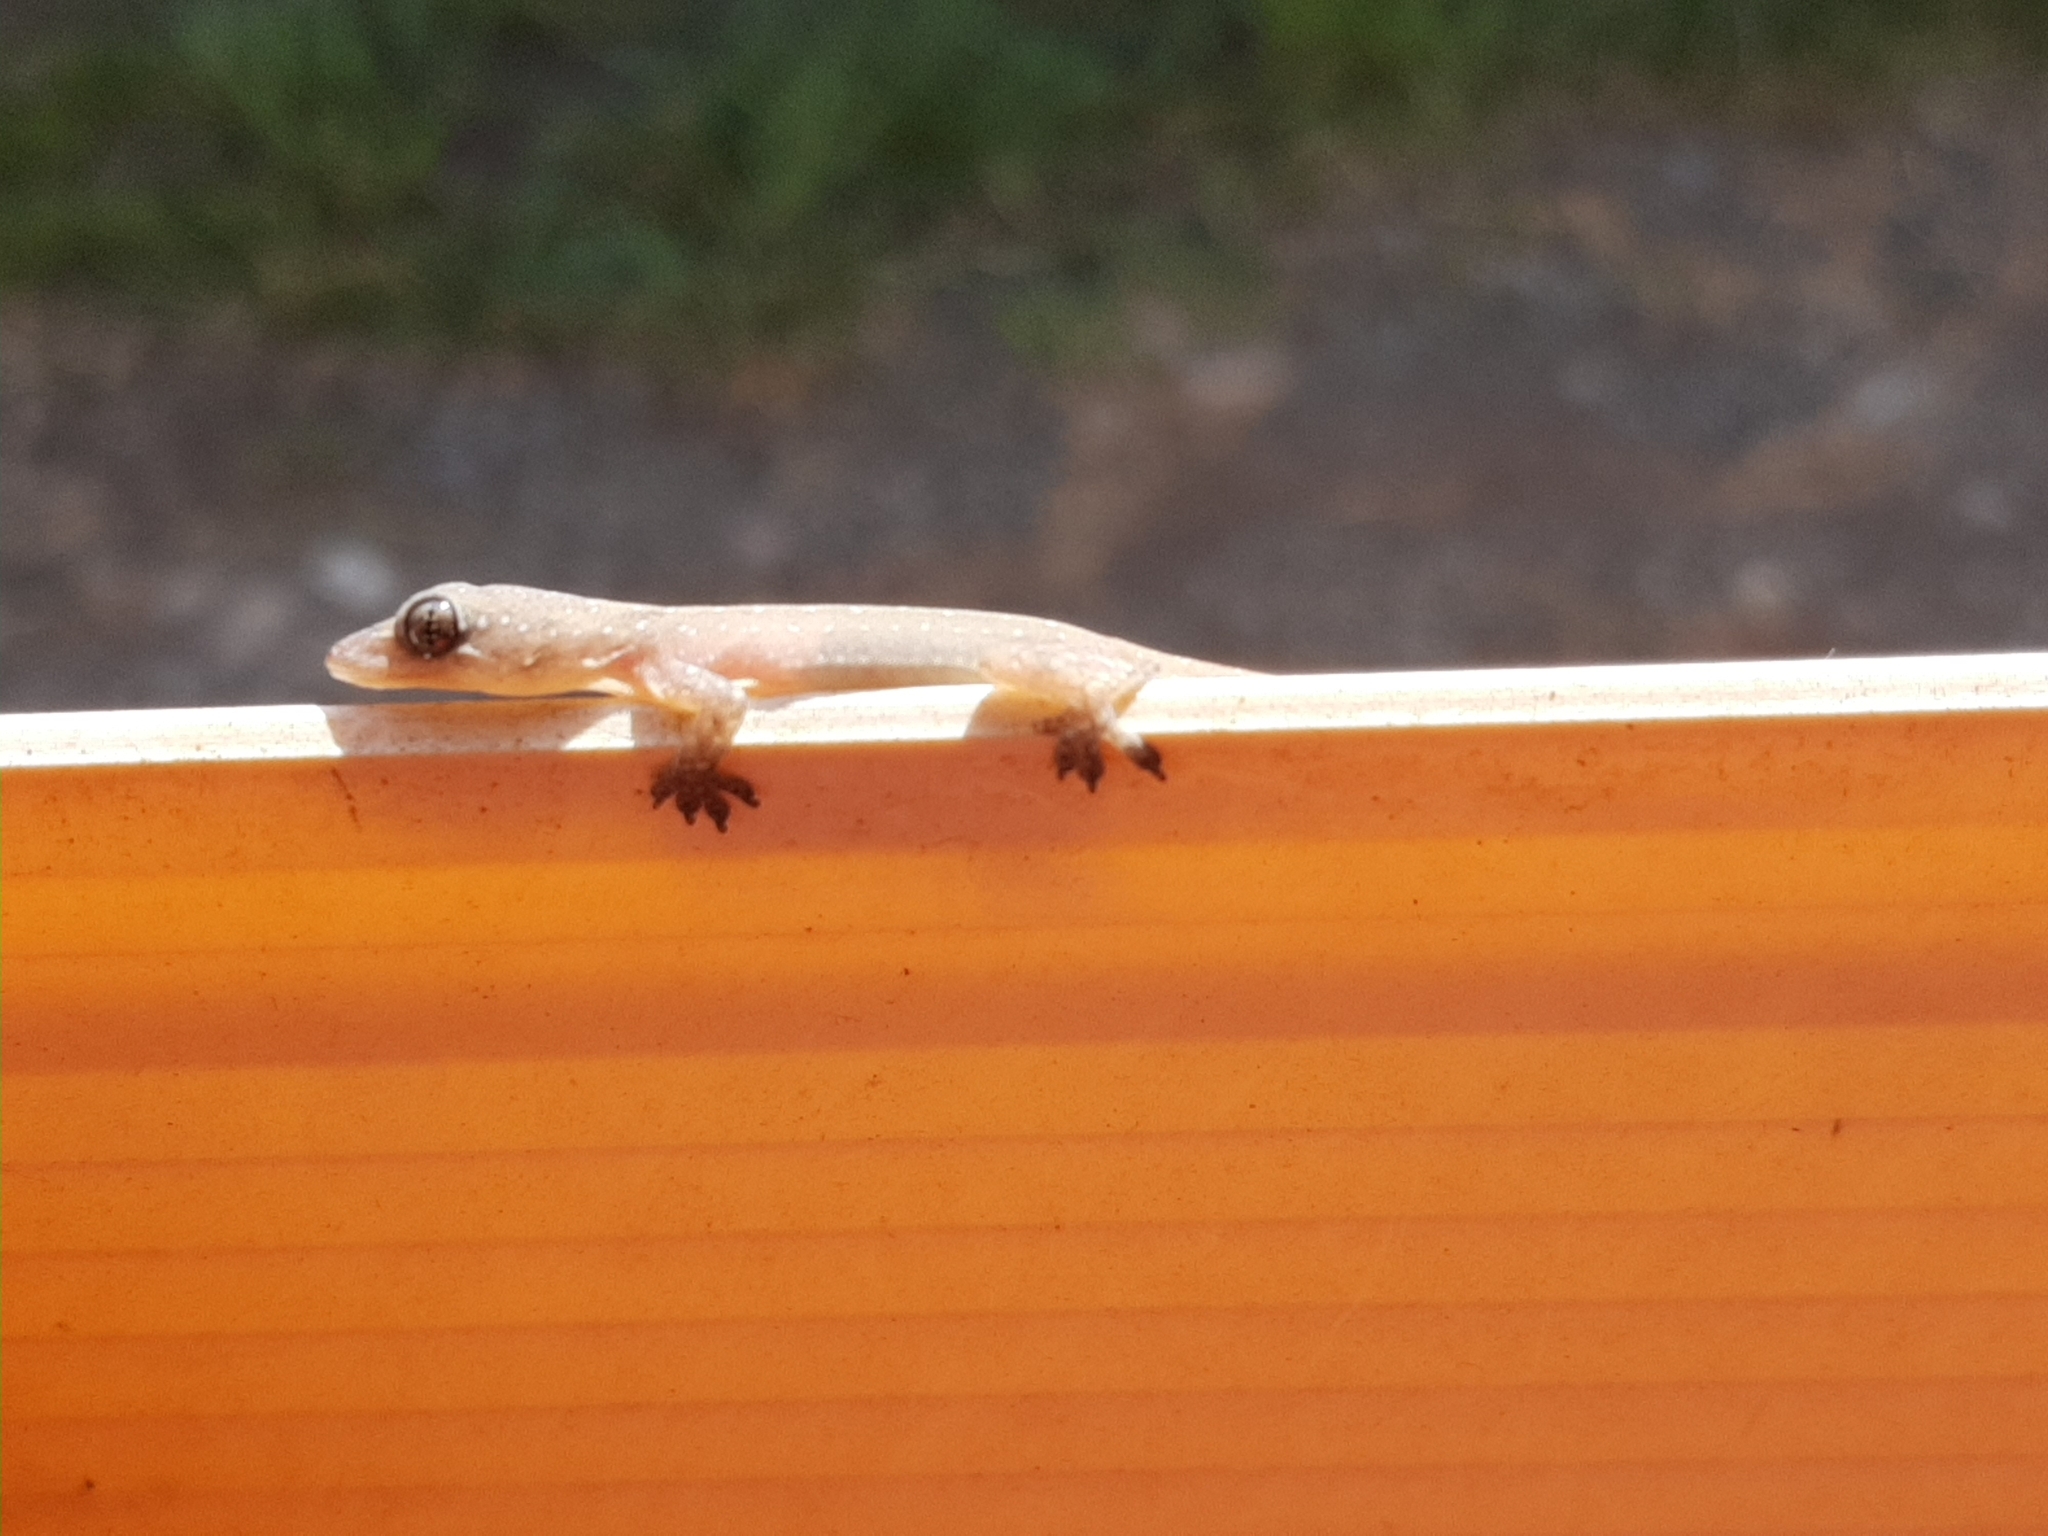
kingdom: Animalia
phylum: Chordata
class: Squamata
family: Gekkonidae
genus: Hemidactylus
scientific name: Hemidactylus frenatus
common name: Common house gecko
